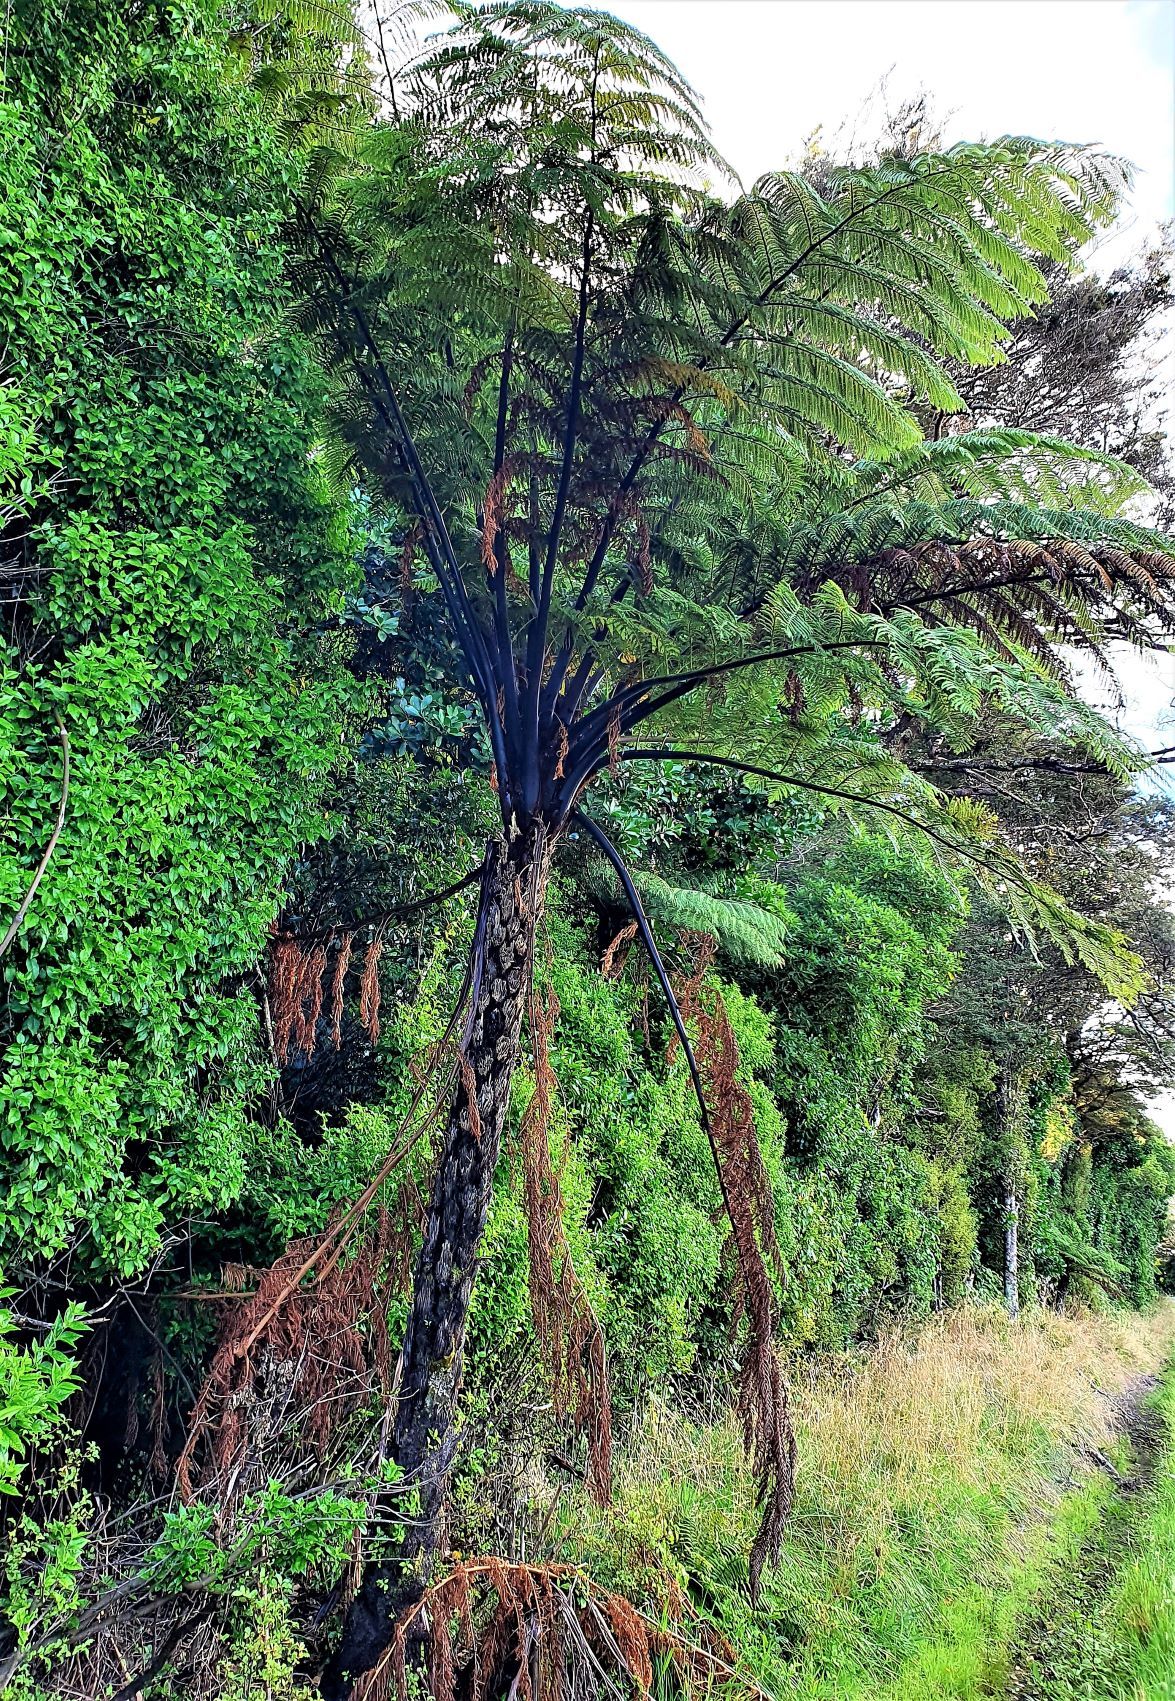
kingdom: Plantae
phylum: Tracheophyta
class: Polypodiopsida
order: Cyatheales
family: Cyatheaceae
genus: Sphaeropteris
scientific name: Sphaeropteris medullaris
